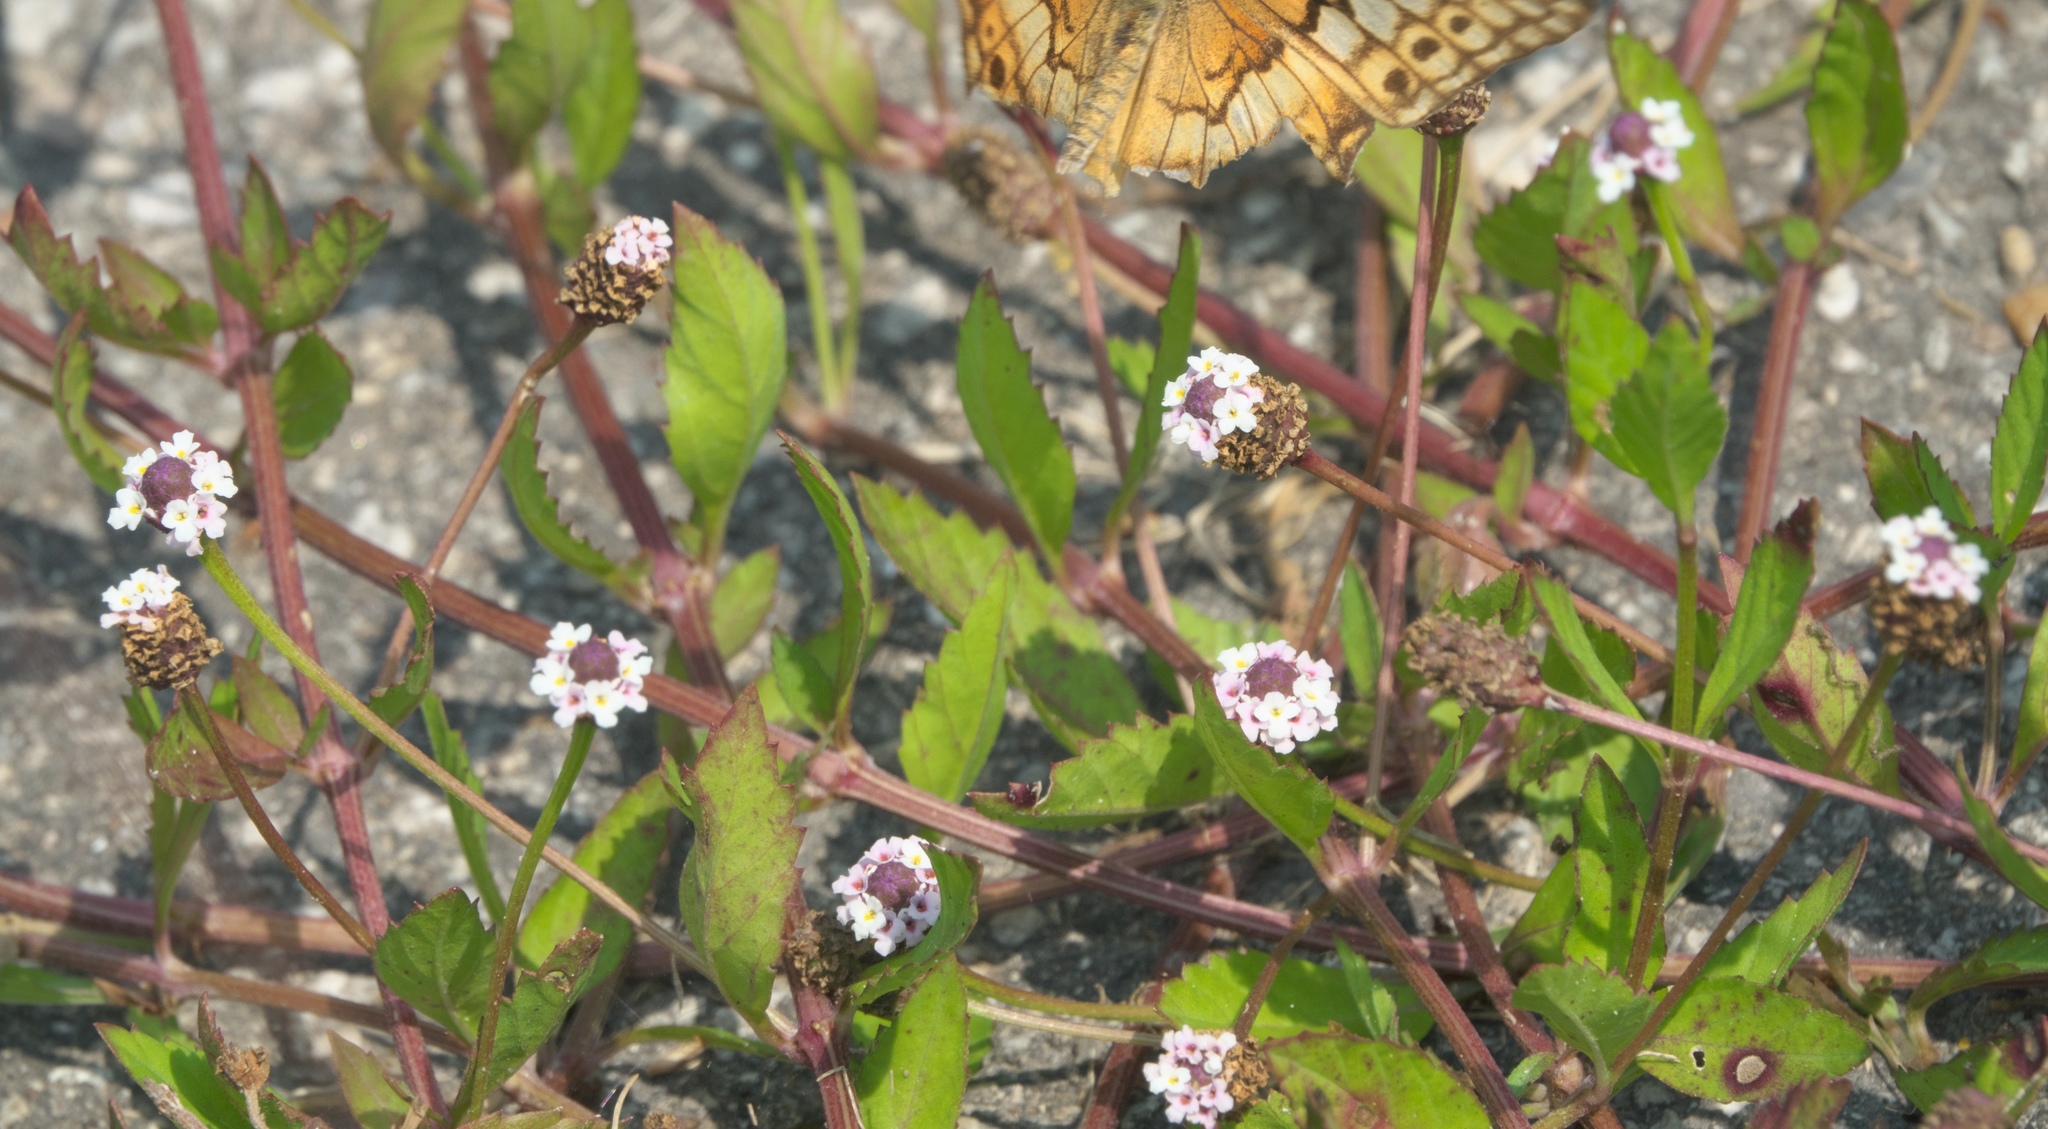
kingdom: Plantae
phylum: Tracheophyta
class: Magnoliopsida
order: Lamiales
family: Verbenaceae
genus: Phyla
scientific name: Phyla lanceolata
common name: Northern fogfruit
